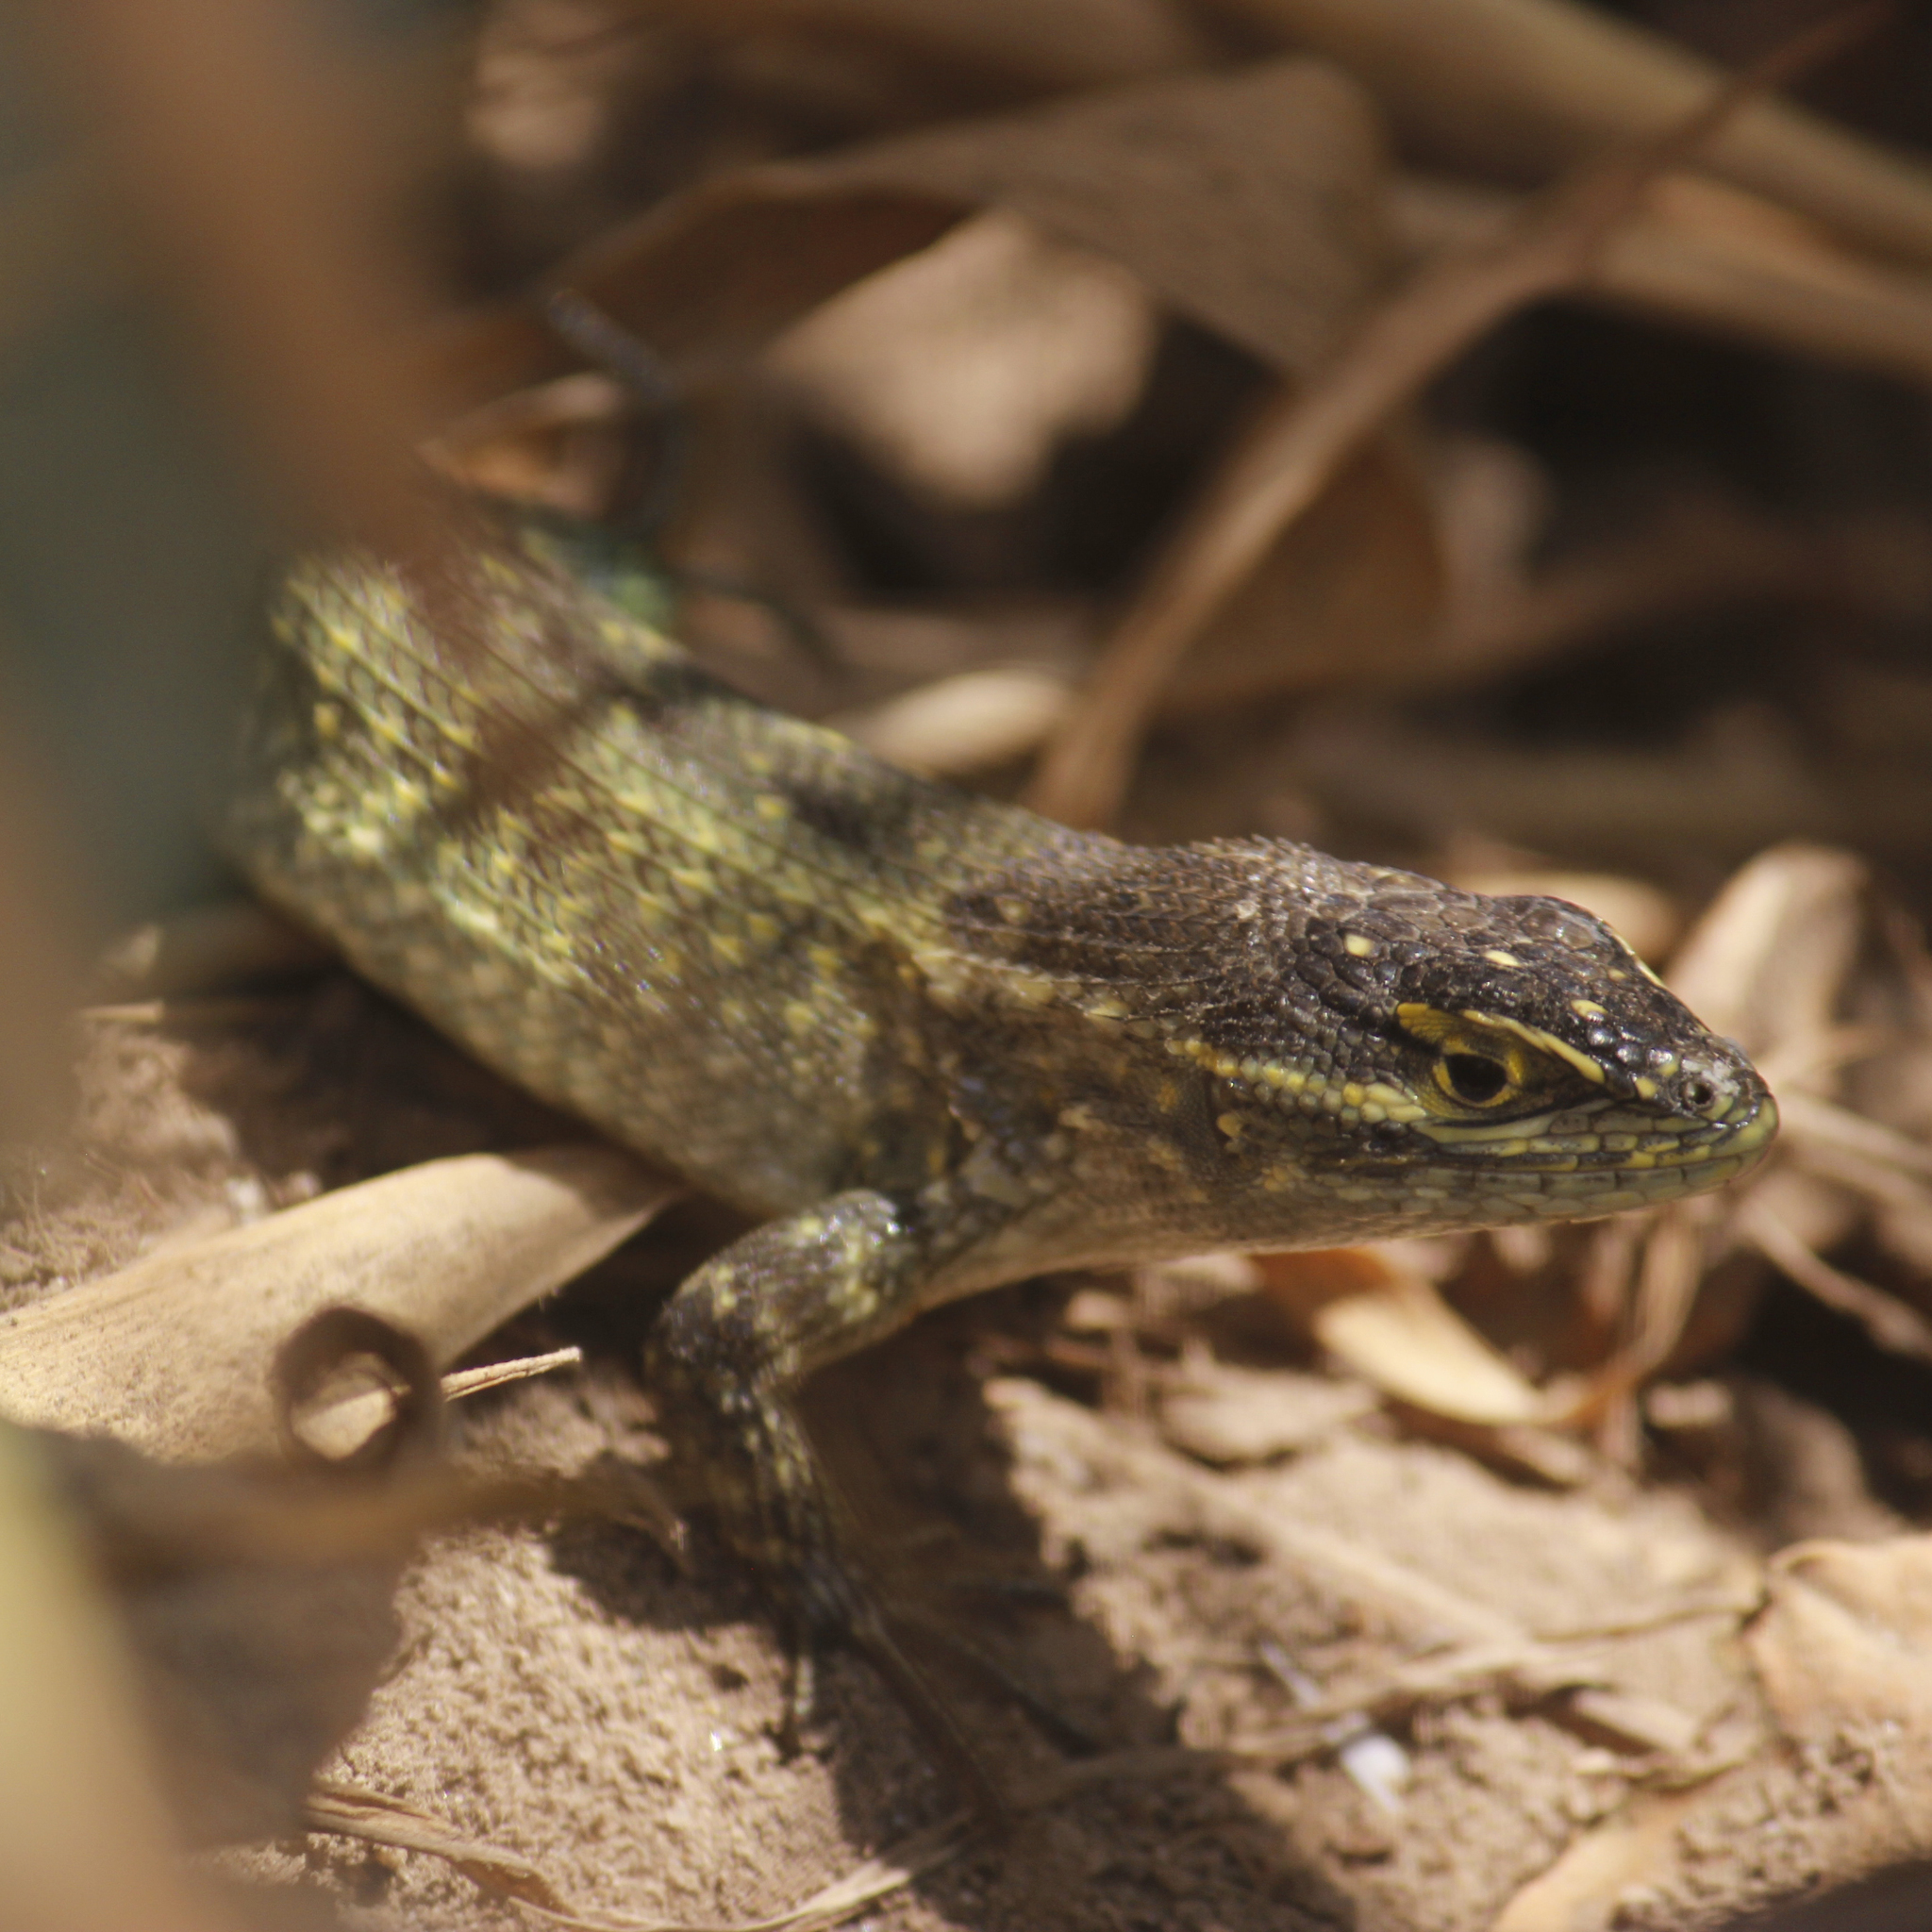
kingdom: Animalia
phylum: Chordata
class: Squamata
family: Tropiduridae
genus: Stenocercus
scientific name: Stenocercus modestus
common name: Modest whorltail iguana
